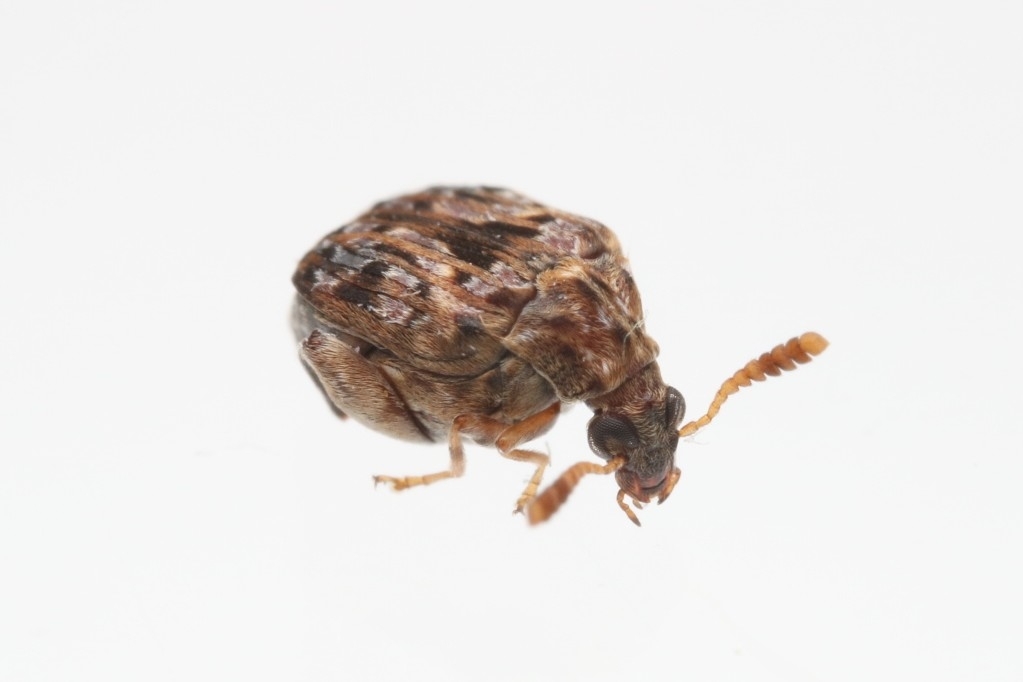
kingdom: Animalia
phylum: Arthropoda
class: Insecta
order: Coleoptera
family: Chrysomelidae
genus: Gibbobruchus
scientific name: Gibbobruchus mimus
